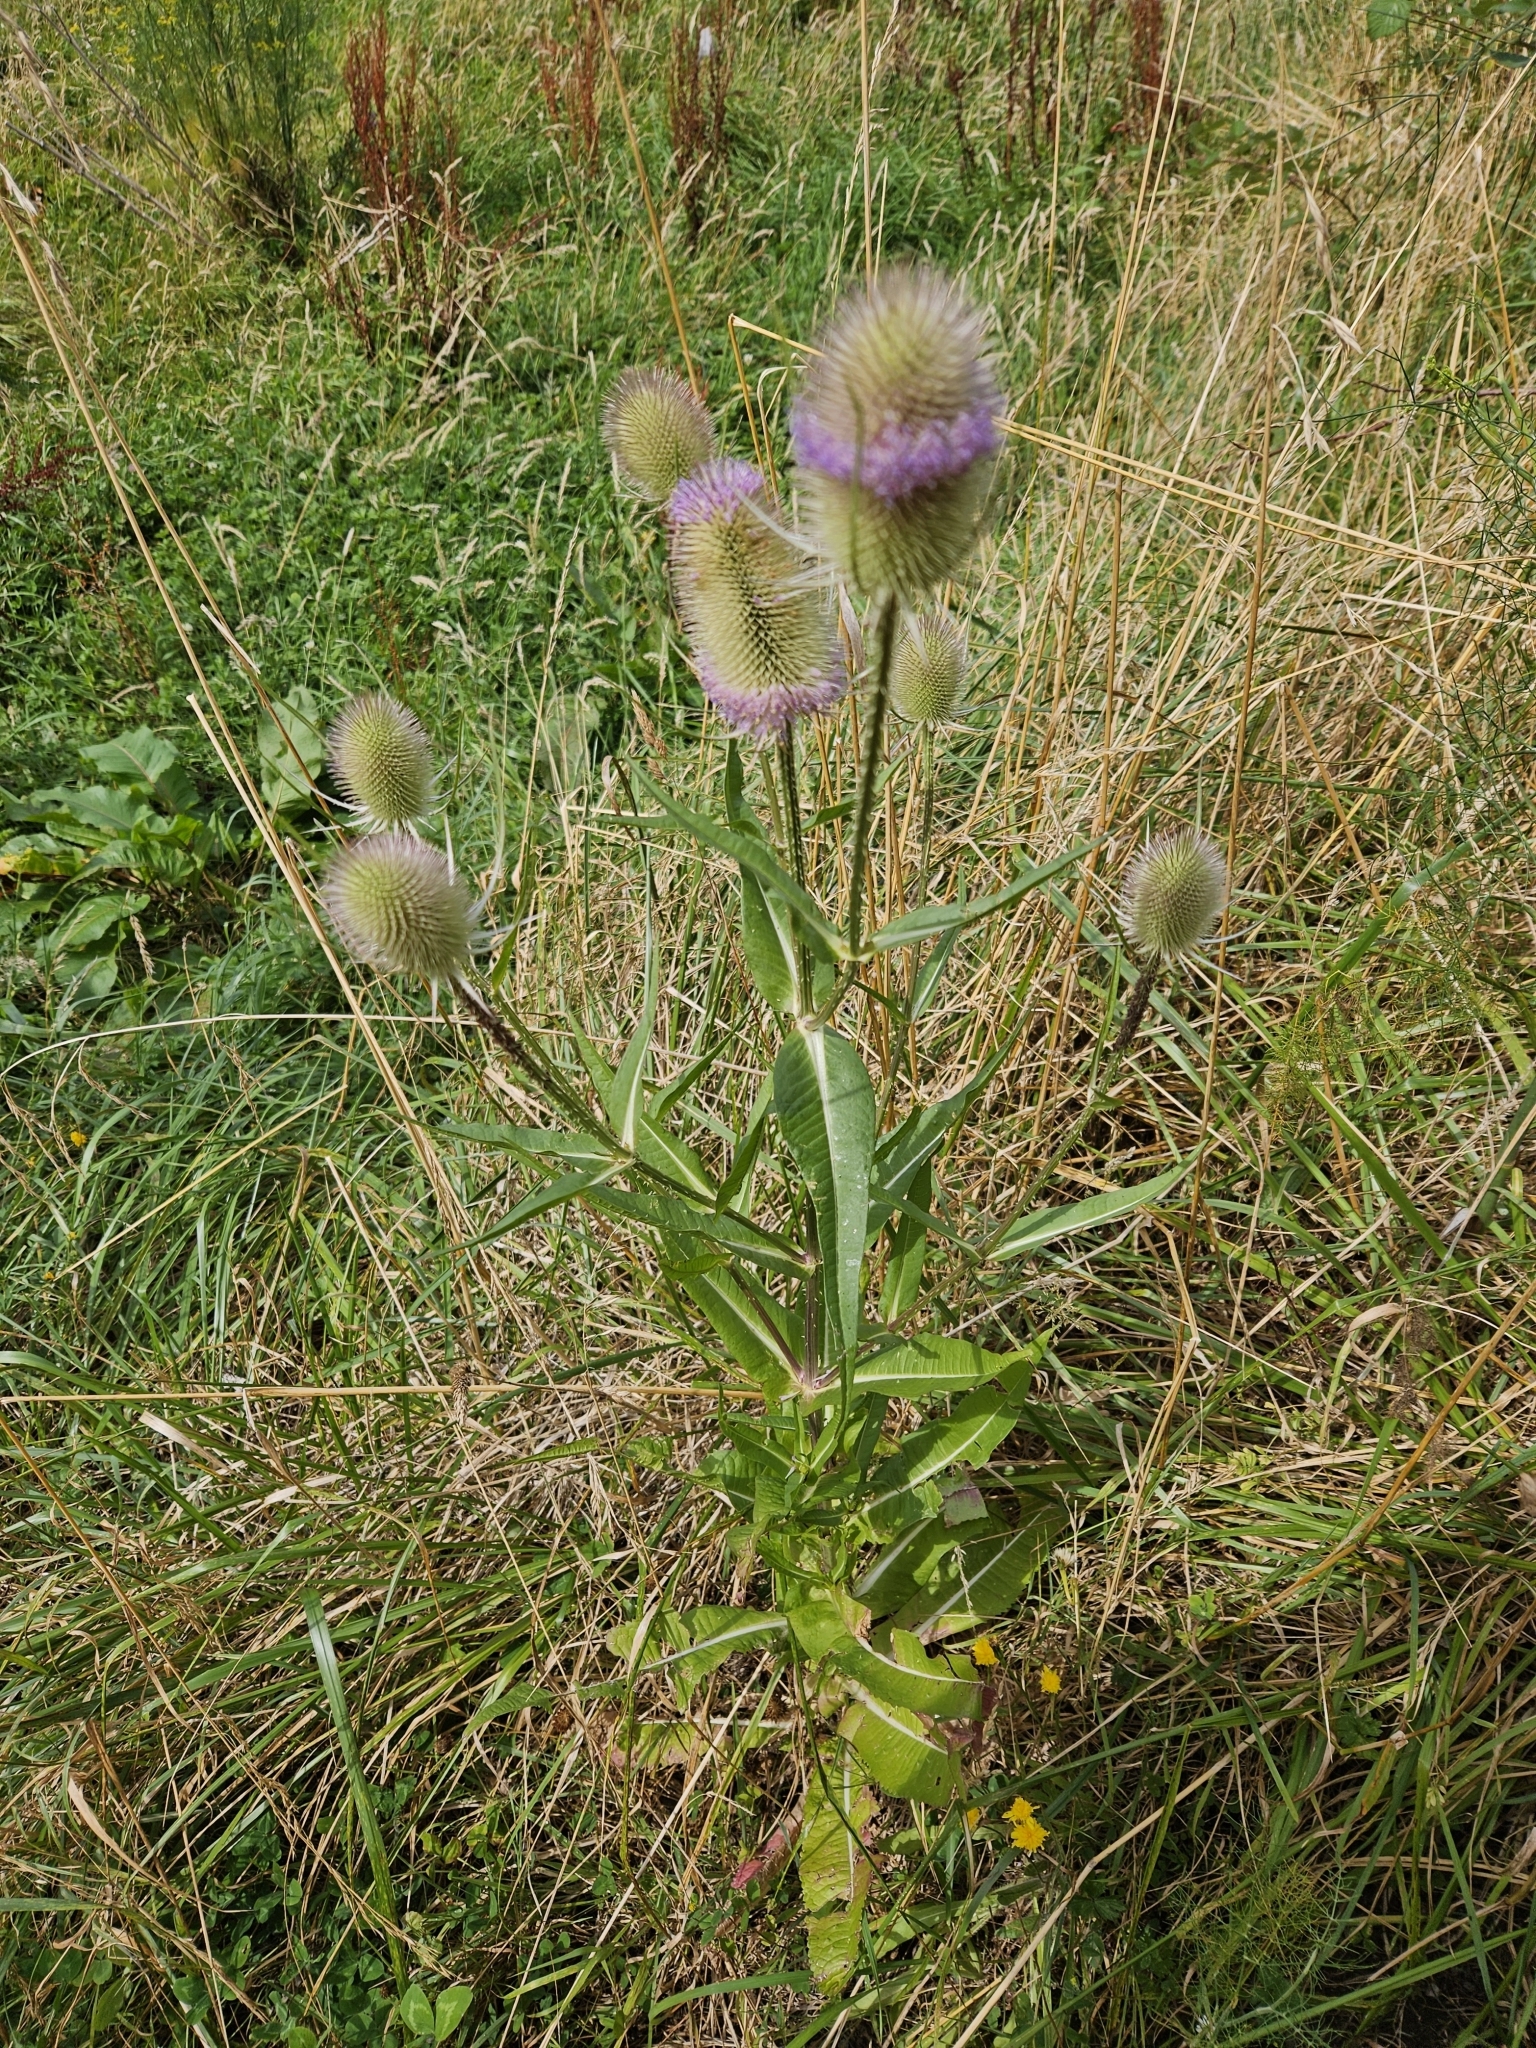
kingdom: Plantae
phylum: Tracheophyta
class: Magnoliopsida
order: Dipsacales
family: Caprifoliaceae
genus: Dipsacus
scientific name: Dipsacus fullonum
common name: Teasel
